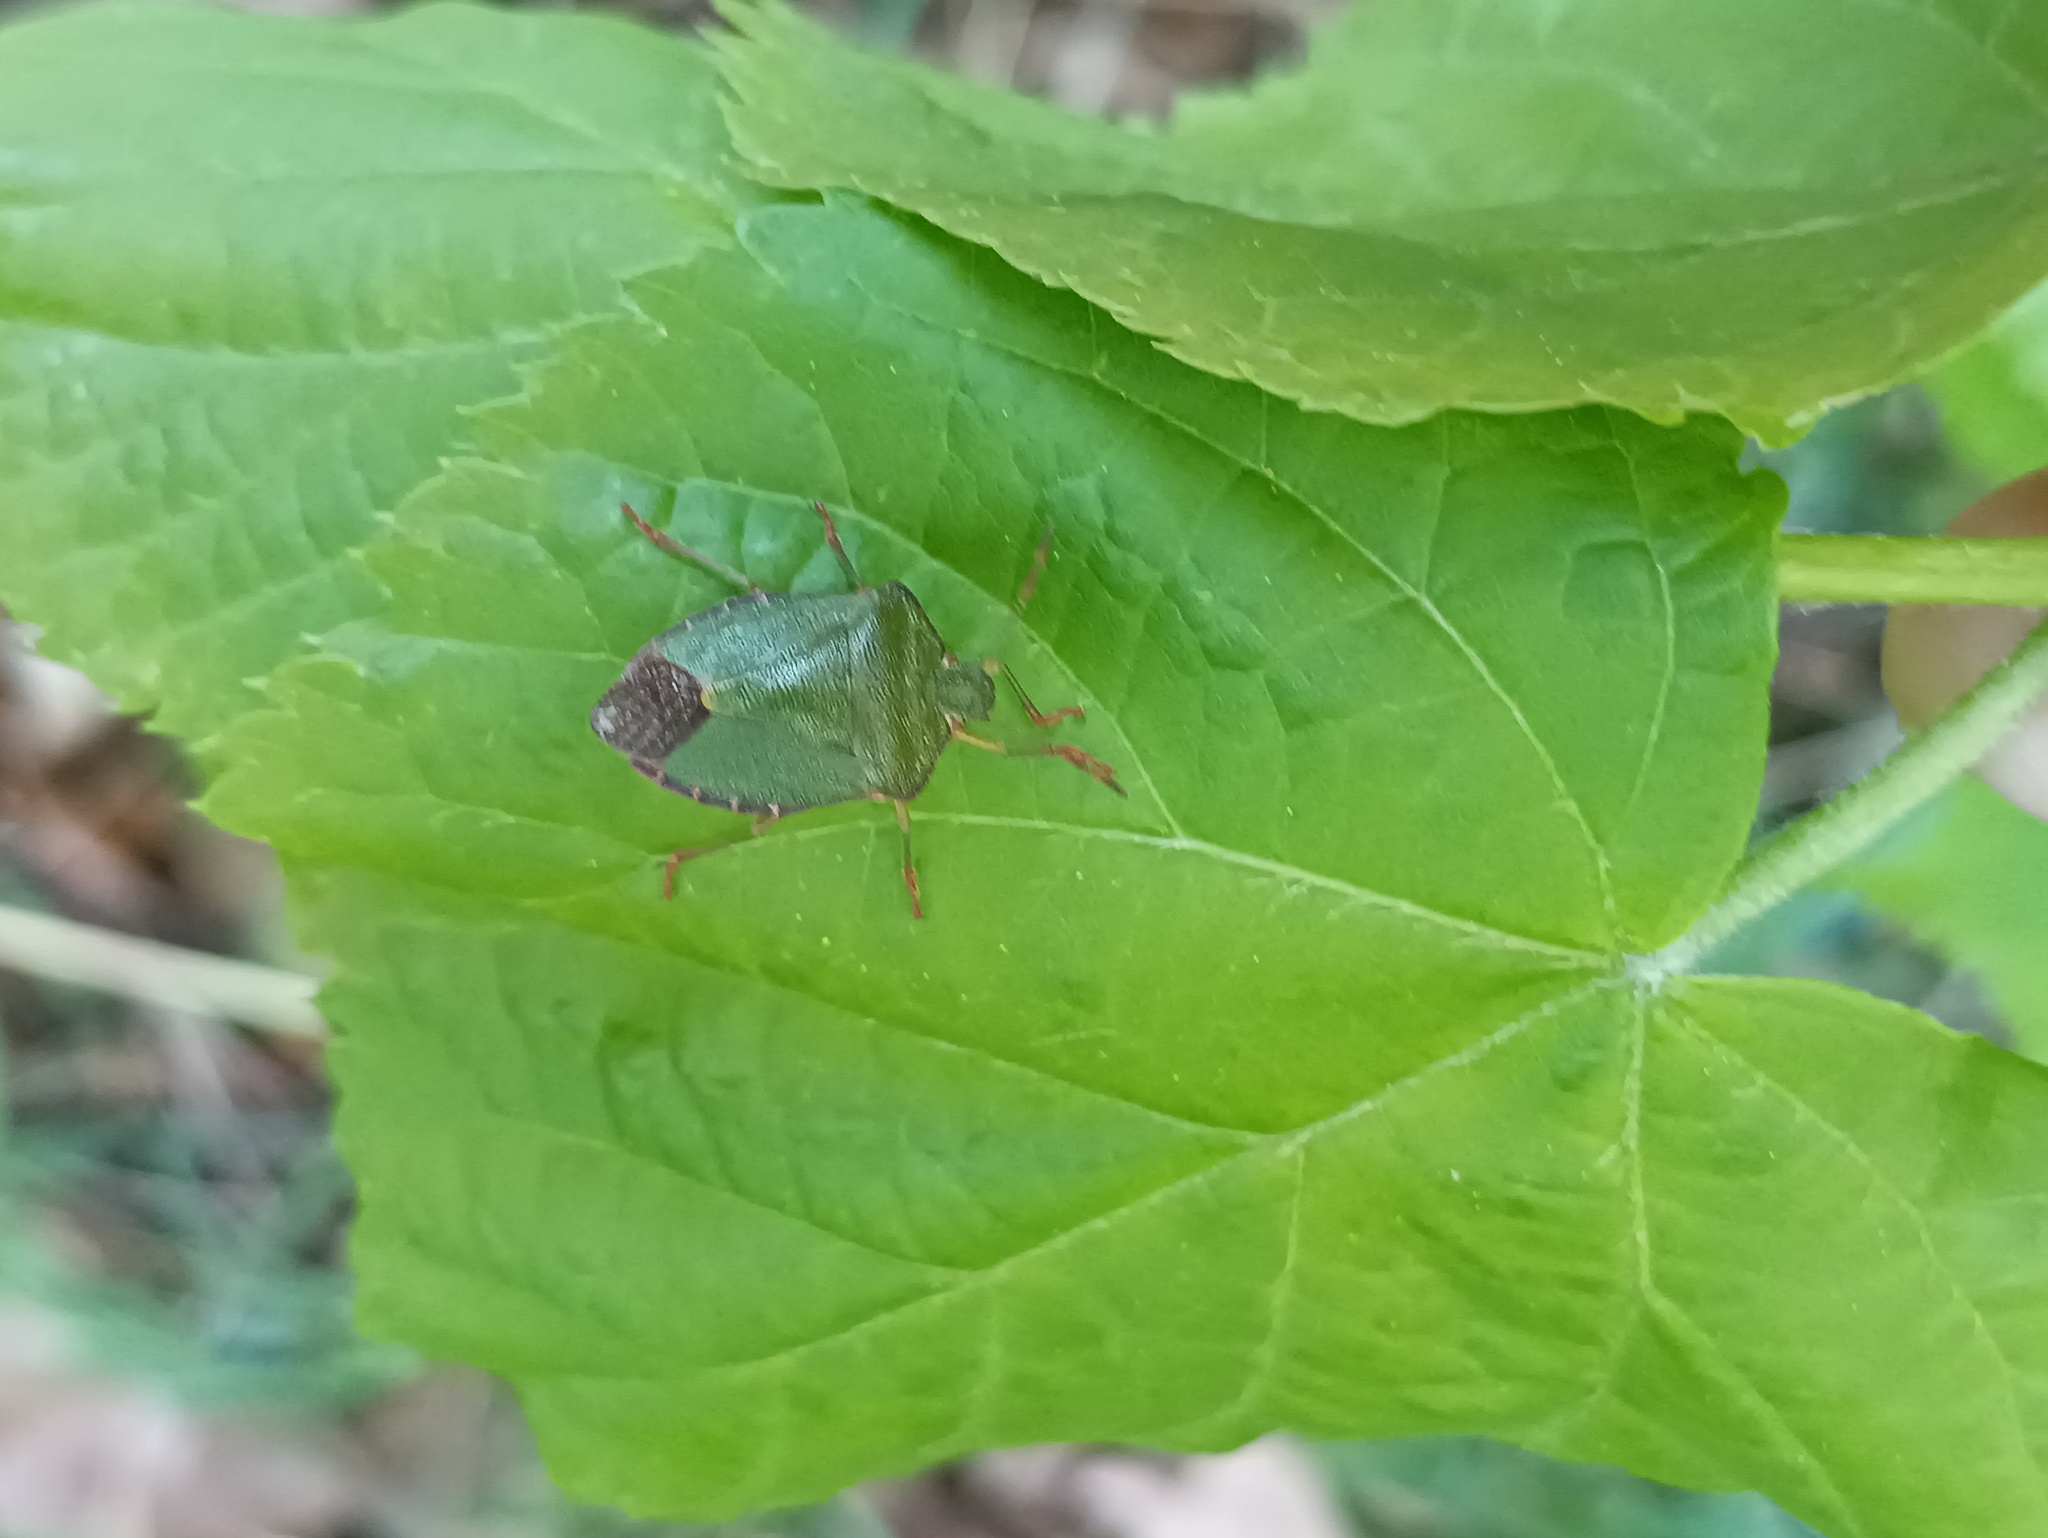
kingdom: Animalia
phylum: Arthropoda
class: Insecta
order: Hemiptera
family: Pentatomidae
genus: Palomena
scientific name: Palomena prasina
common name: Green shieldbug
